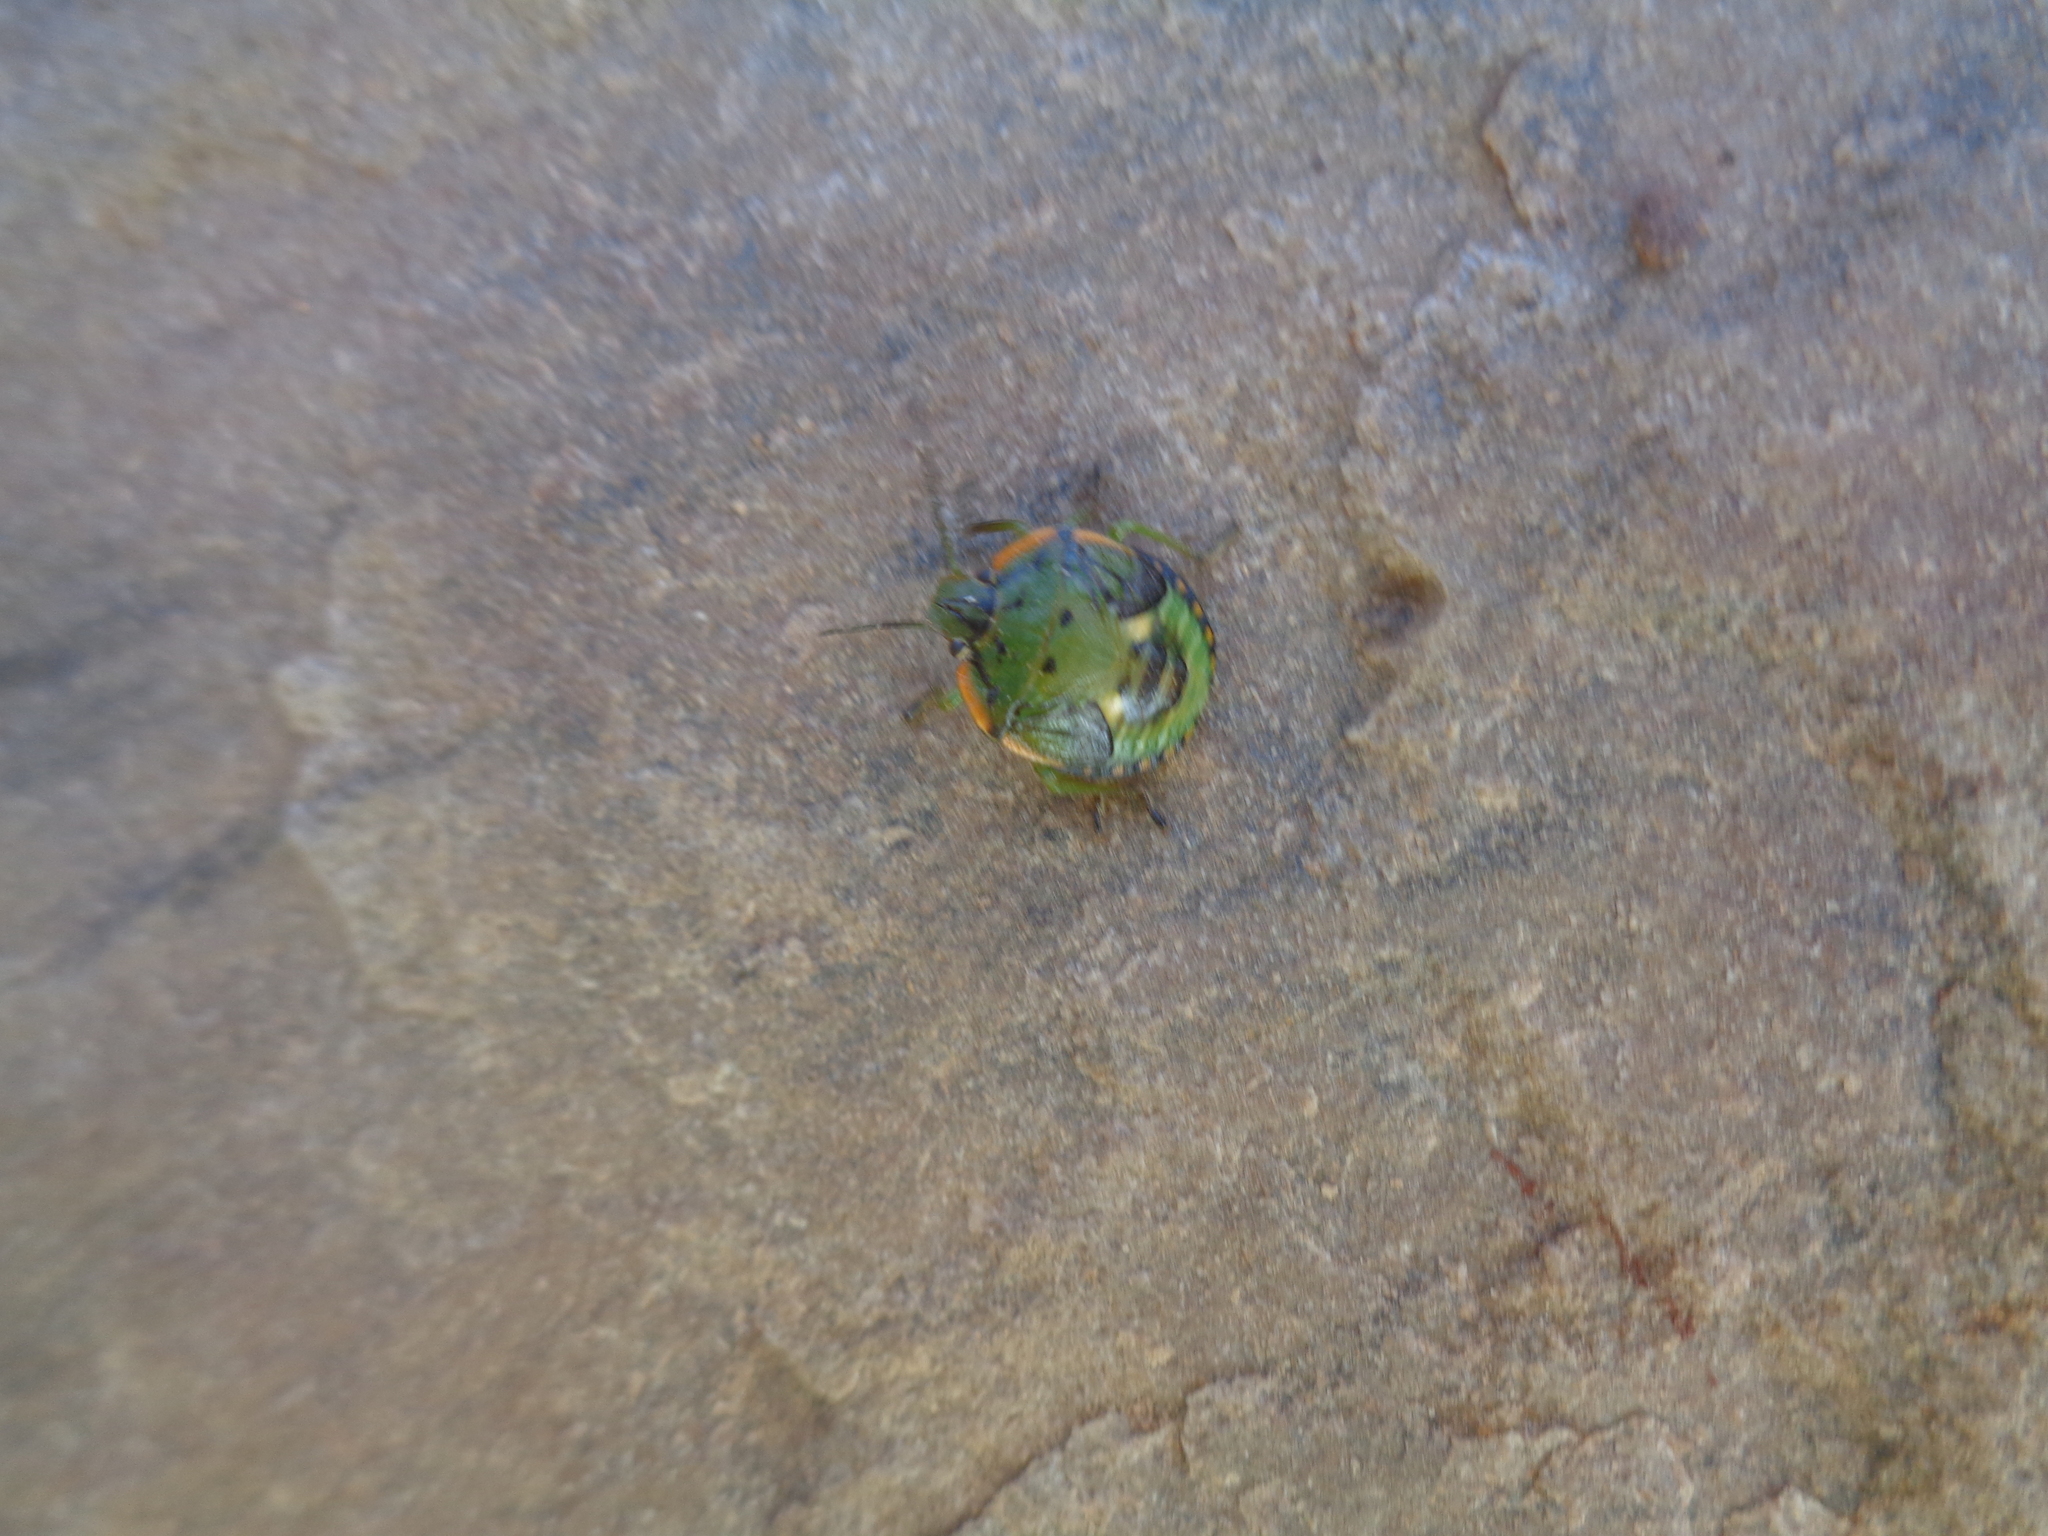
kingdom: Animalia
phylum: Arthropoda
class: Insecta
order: Hemiptera
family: Pentatomidae
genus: Chinavia
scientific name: Chinavia hilaris
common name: Green stink bug
